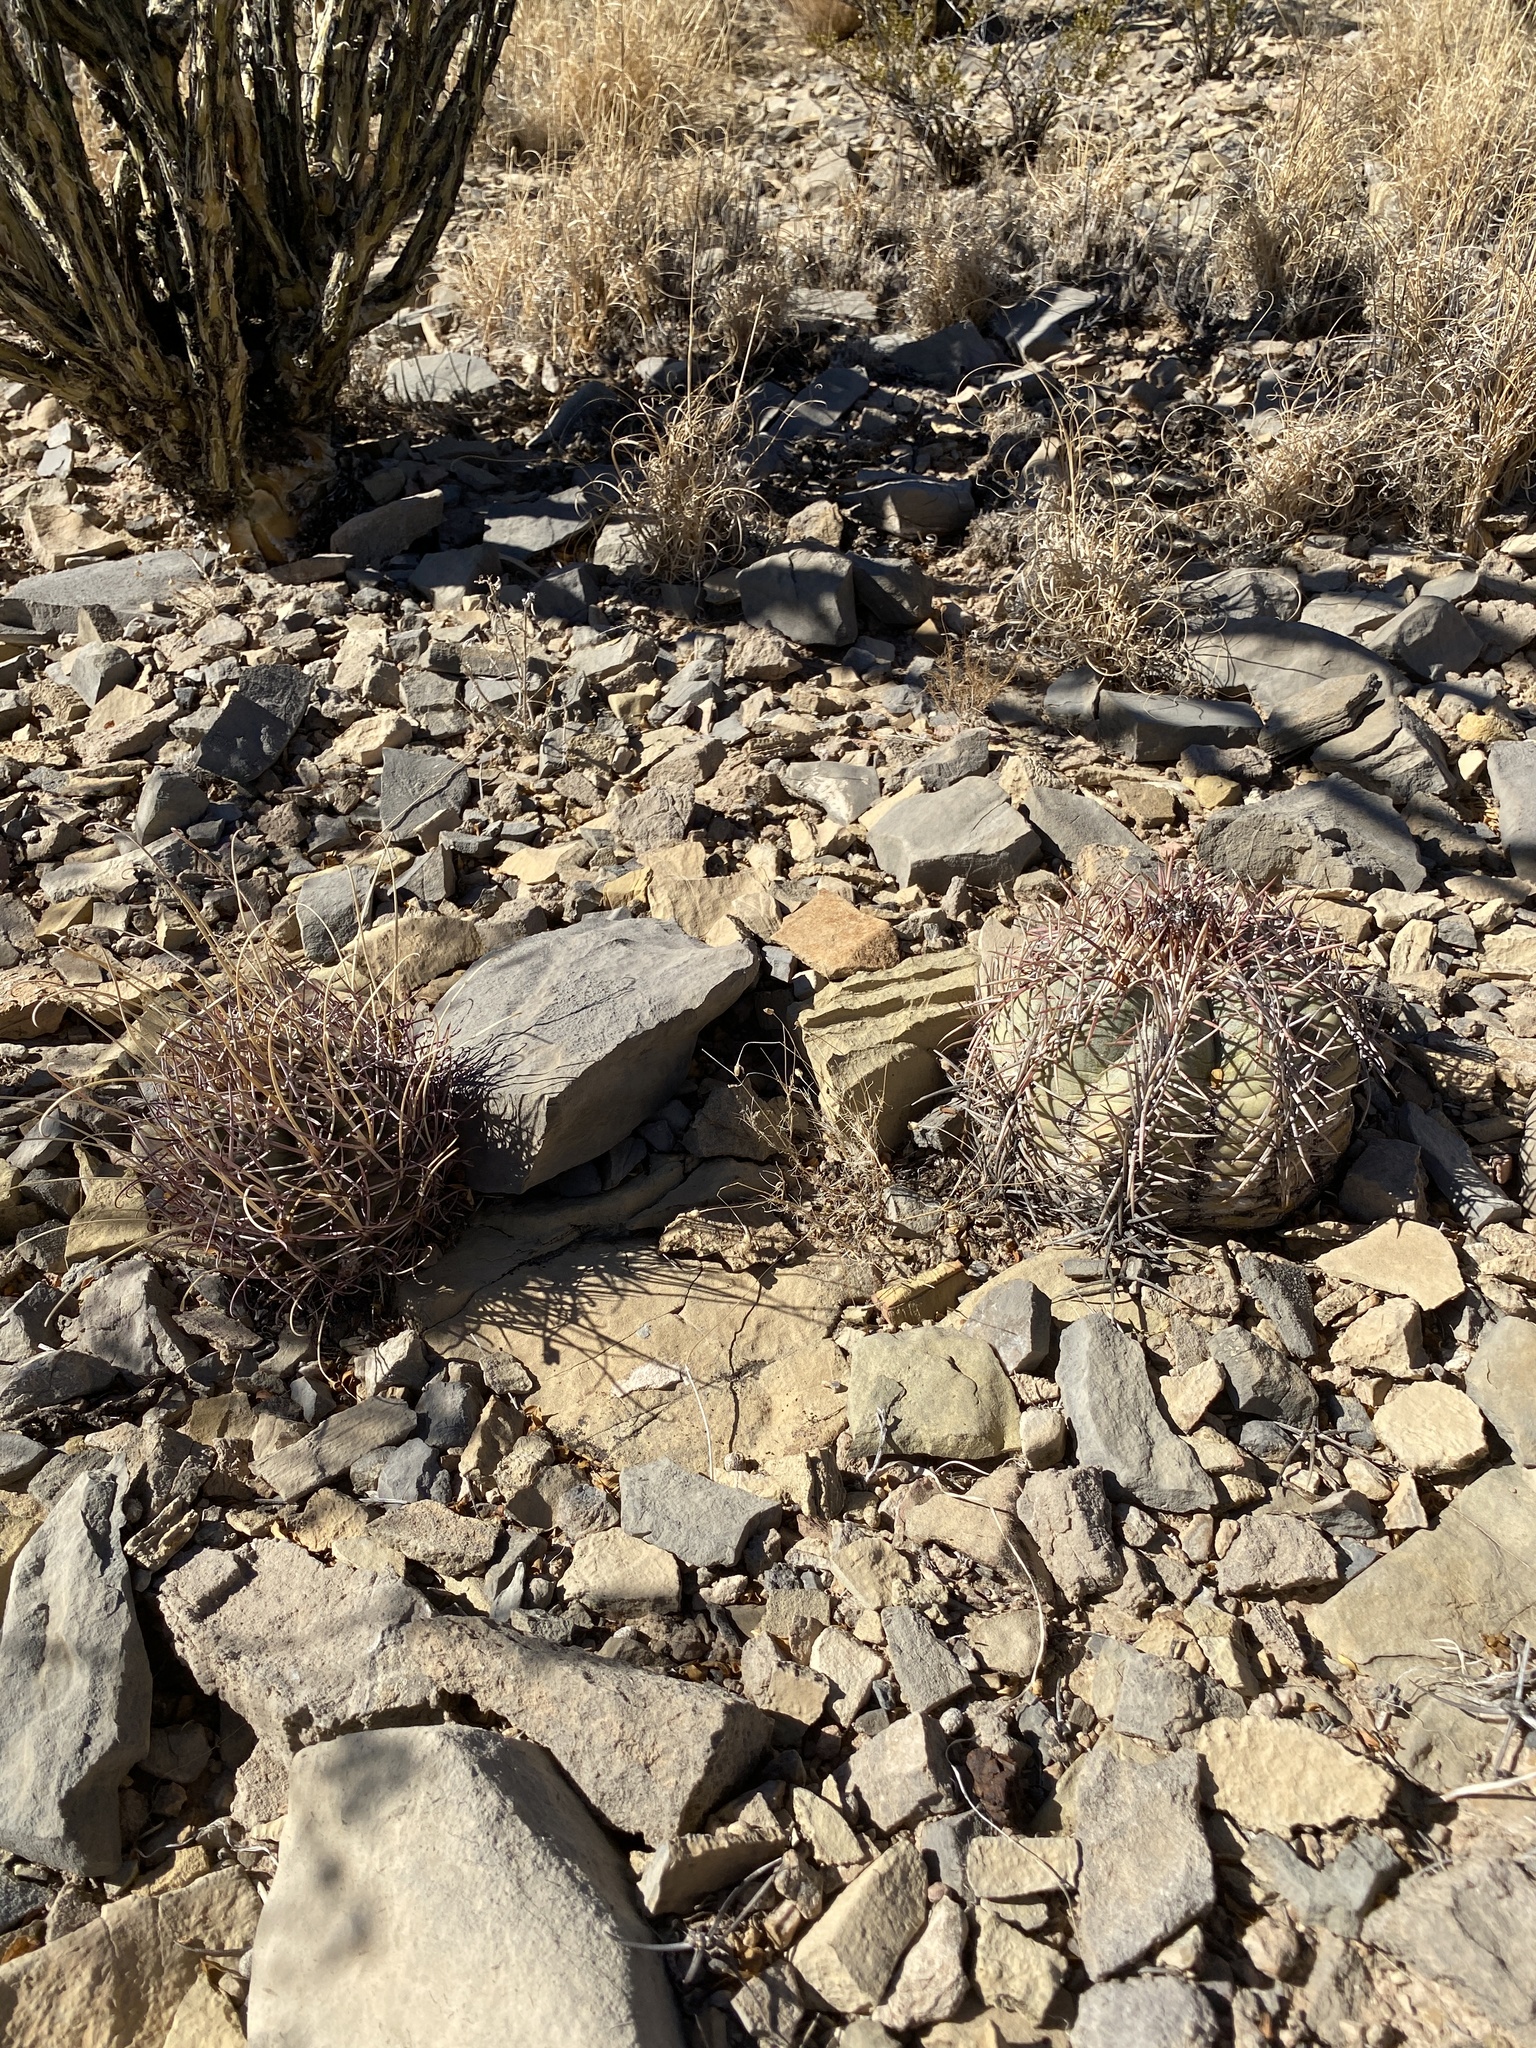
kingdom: Plantae
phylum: Tracheophyta
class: Magnoliopsida
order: Caryophyllales
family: Cactaceae
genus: Echinocactus
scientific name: Echinocactus horizonthalonius
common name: Devilshead
